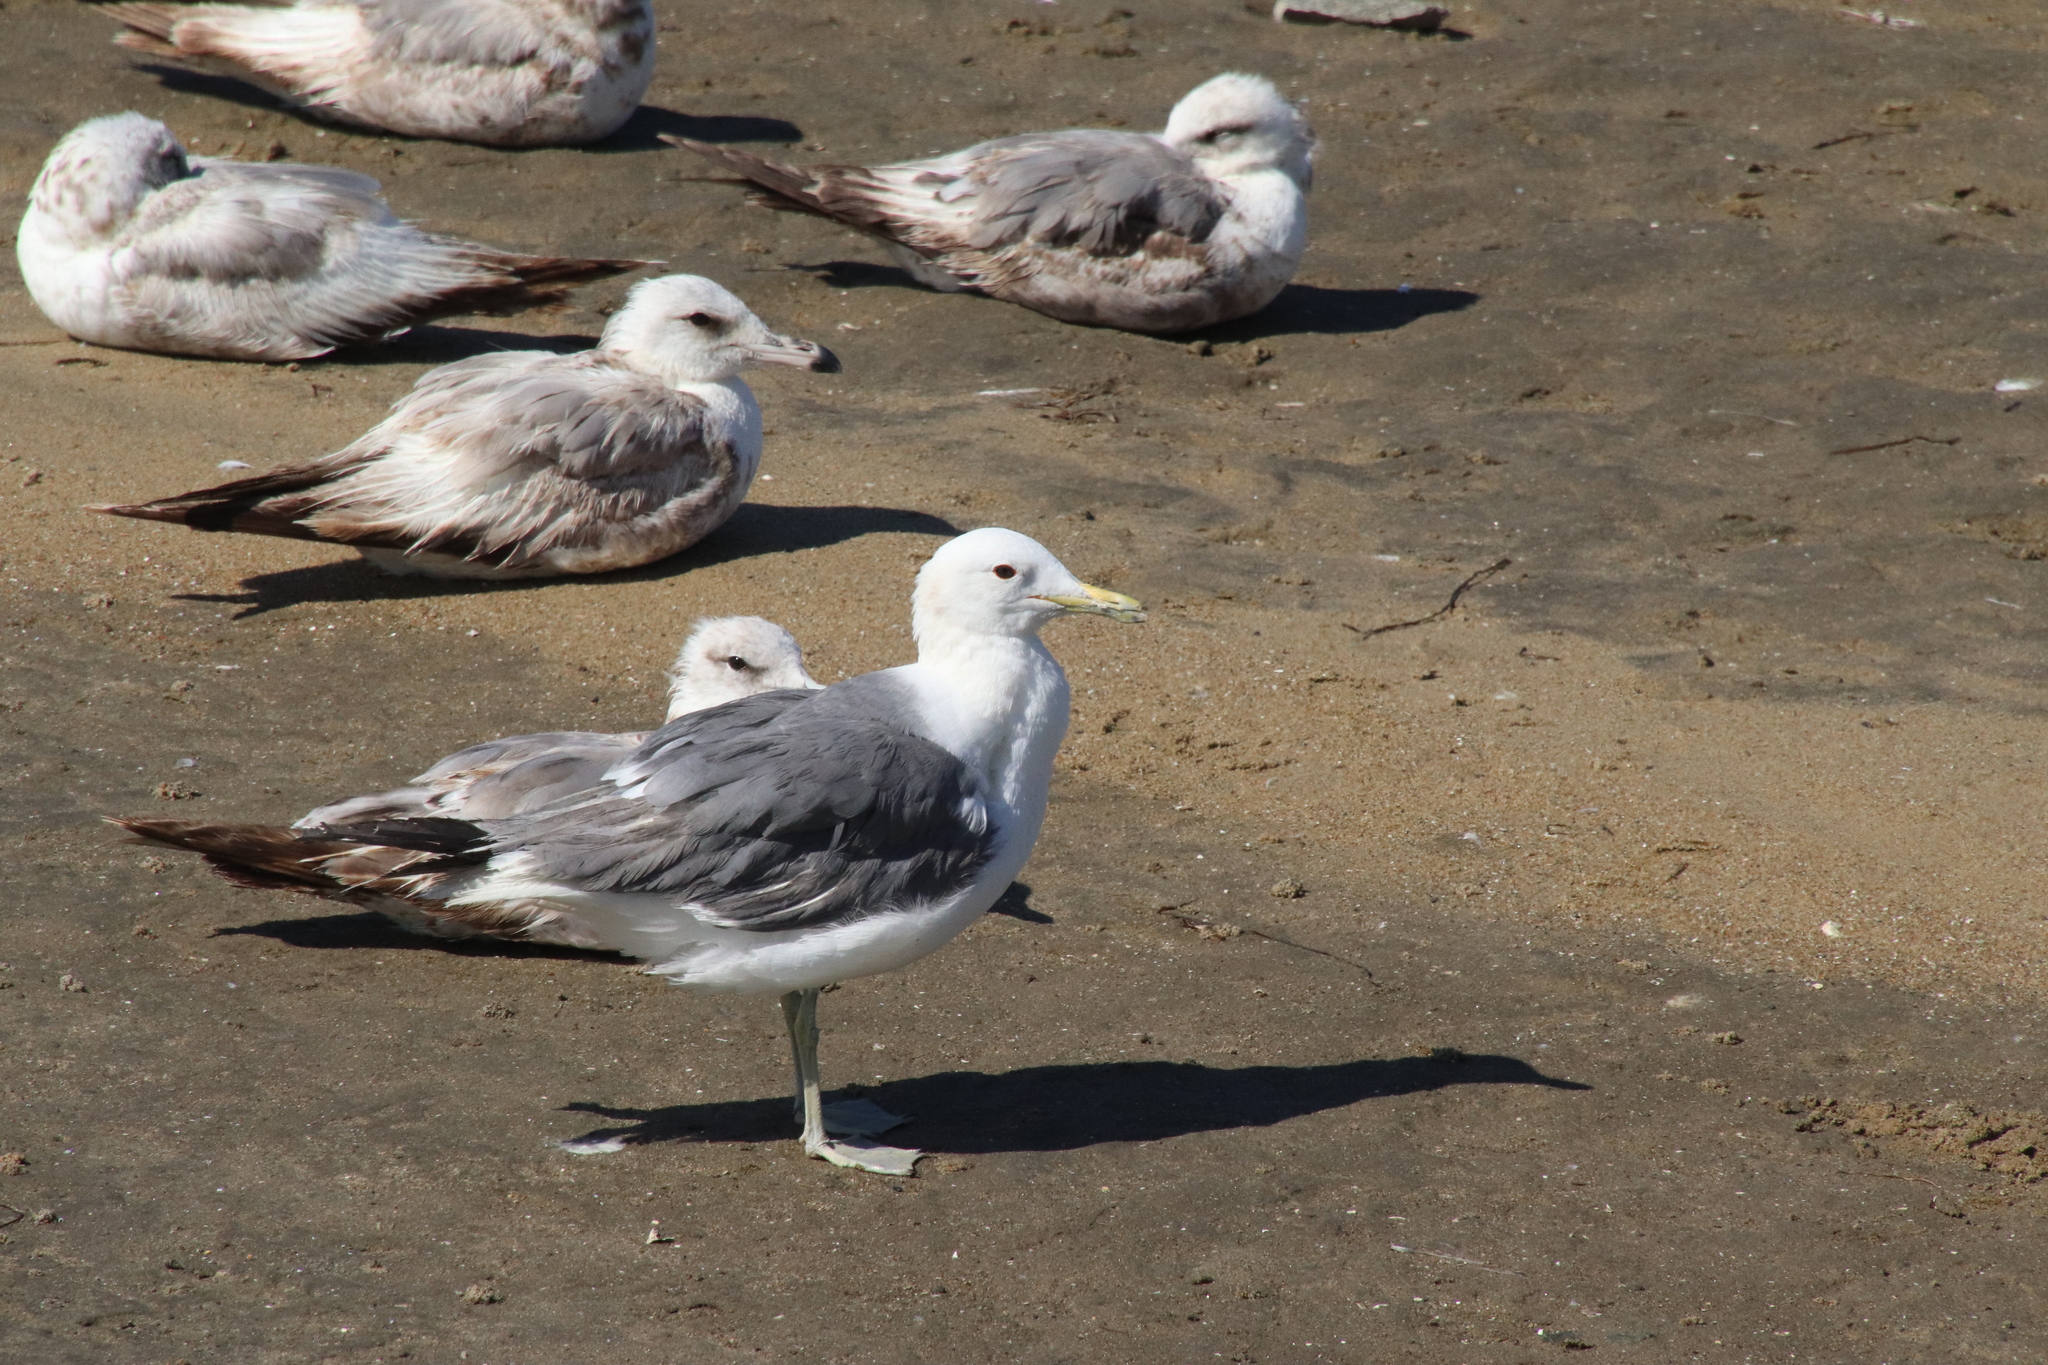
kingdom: Animalia
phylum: Chordata
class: Aves
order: Charadriiformes
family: Laridae
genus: Larus
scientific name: Larus californicus
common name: California gull
